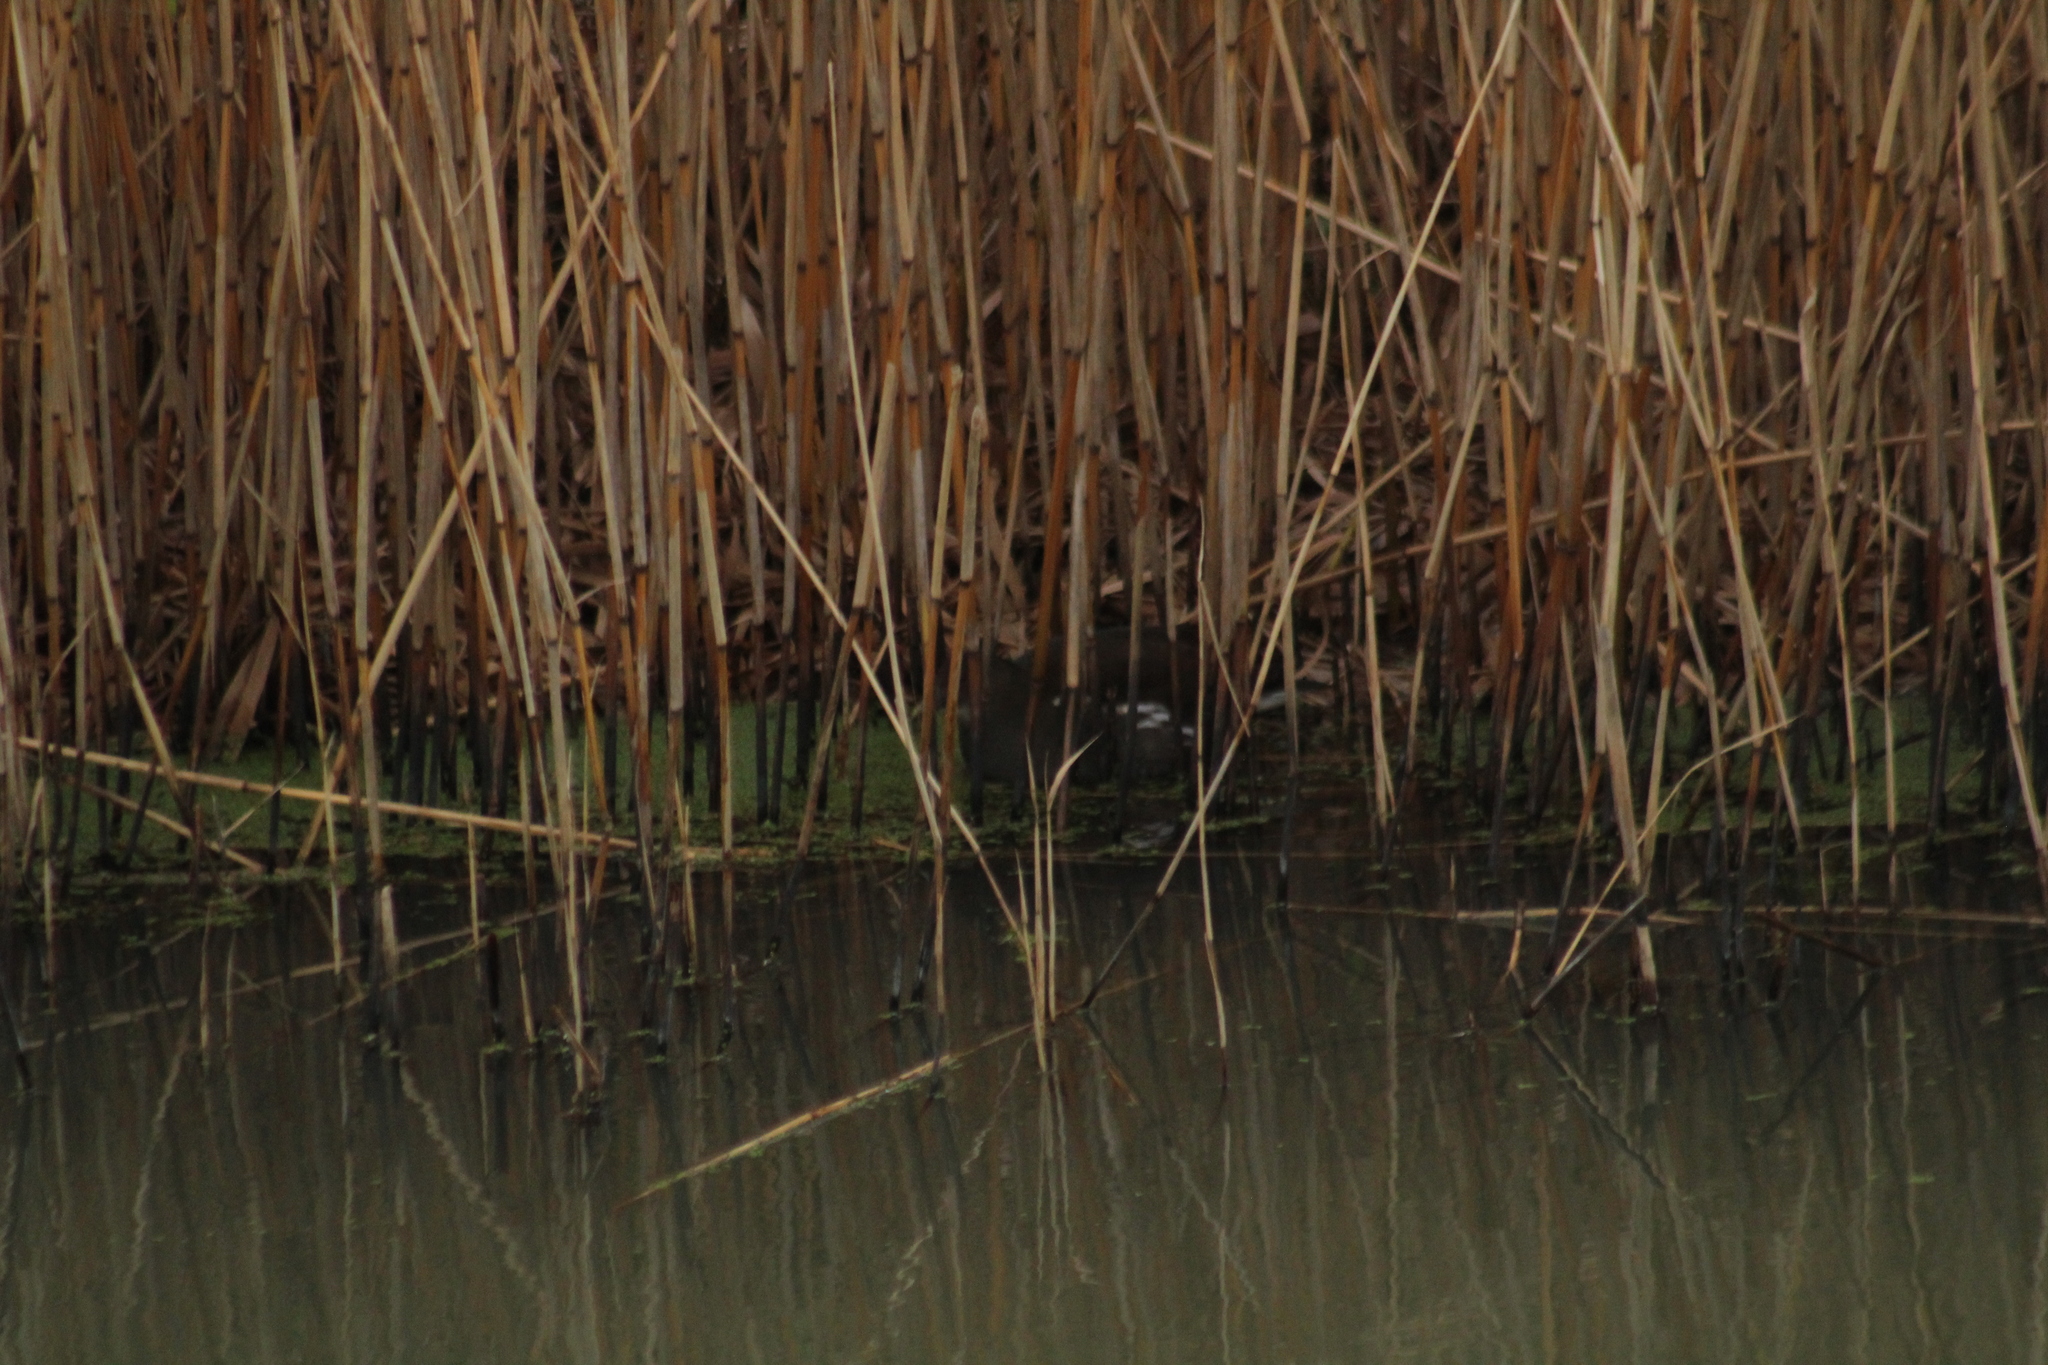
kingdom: Animalia
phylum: Chordata
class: Aves
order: Gruiformes
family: Rallidae
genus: Gallinula
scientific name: Gallinula chloropus
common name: Common moorhen
